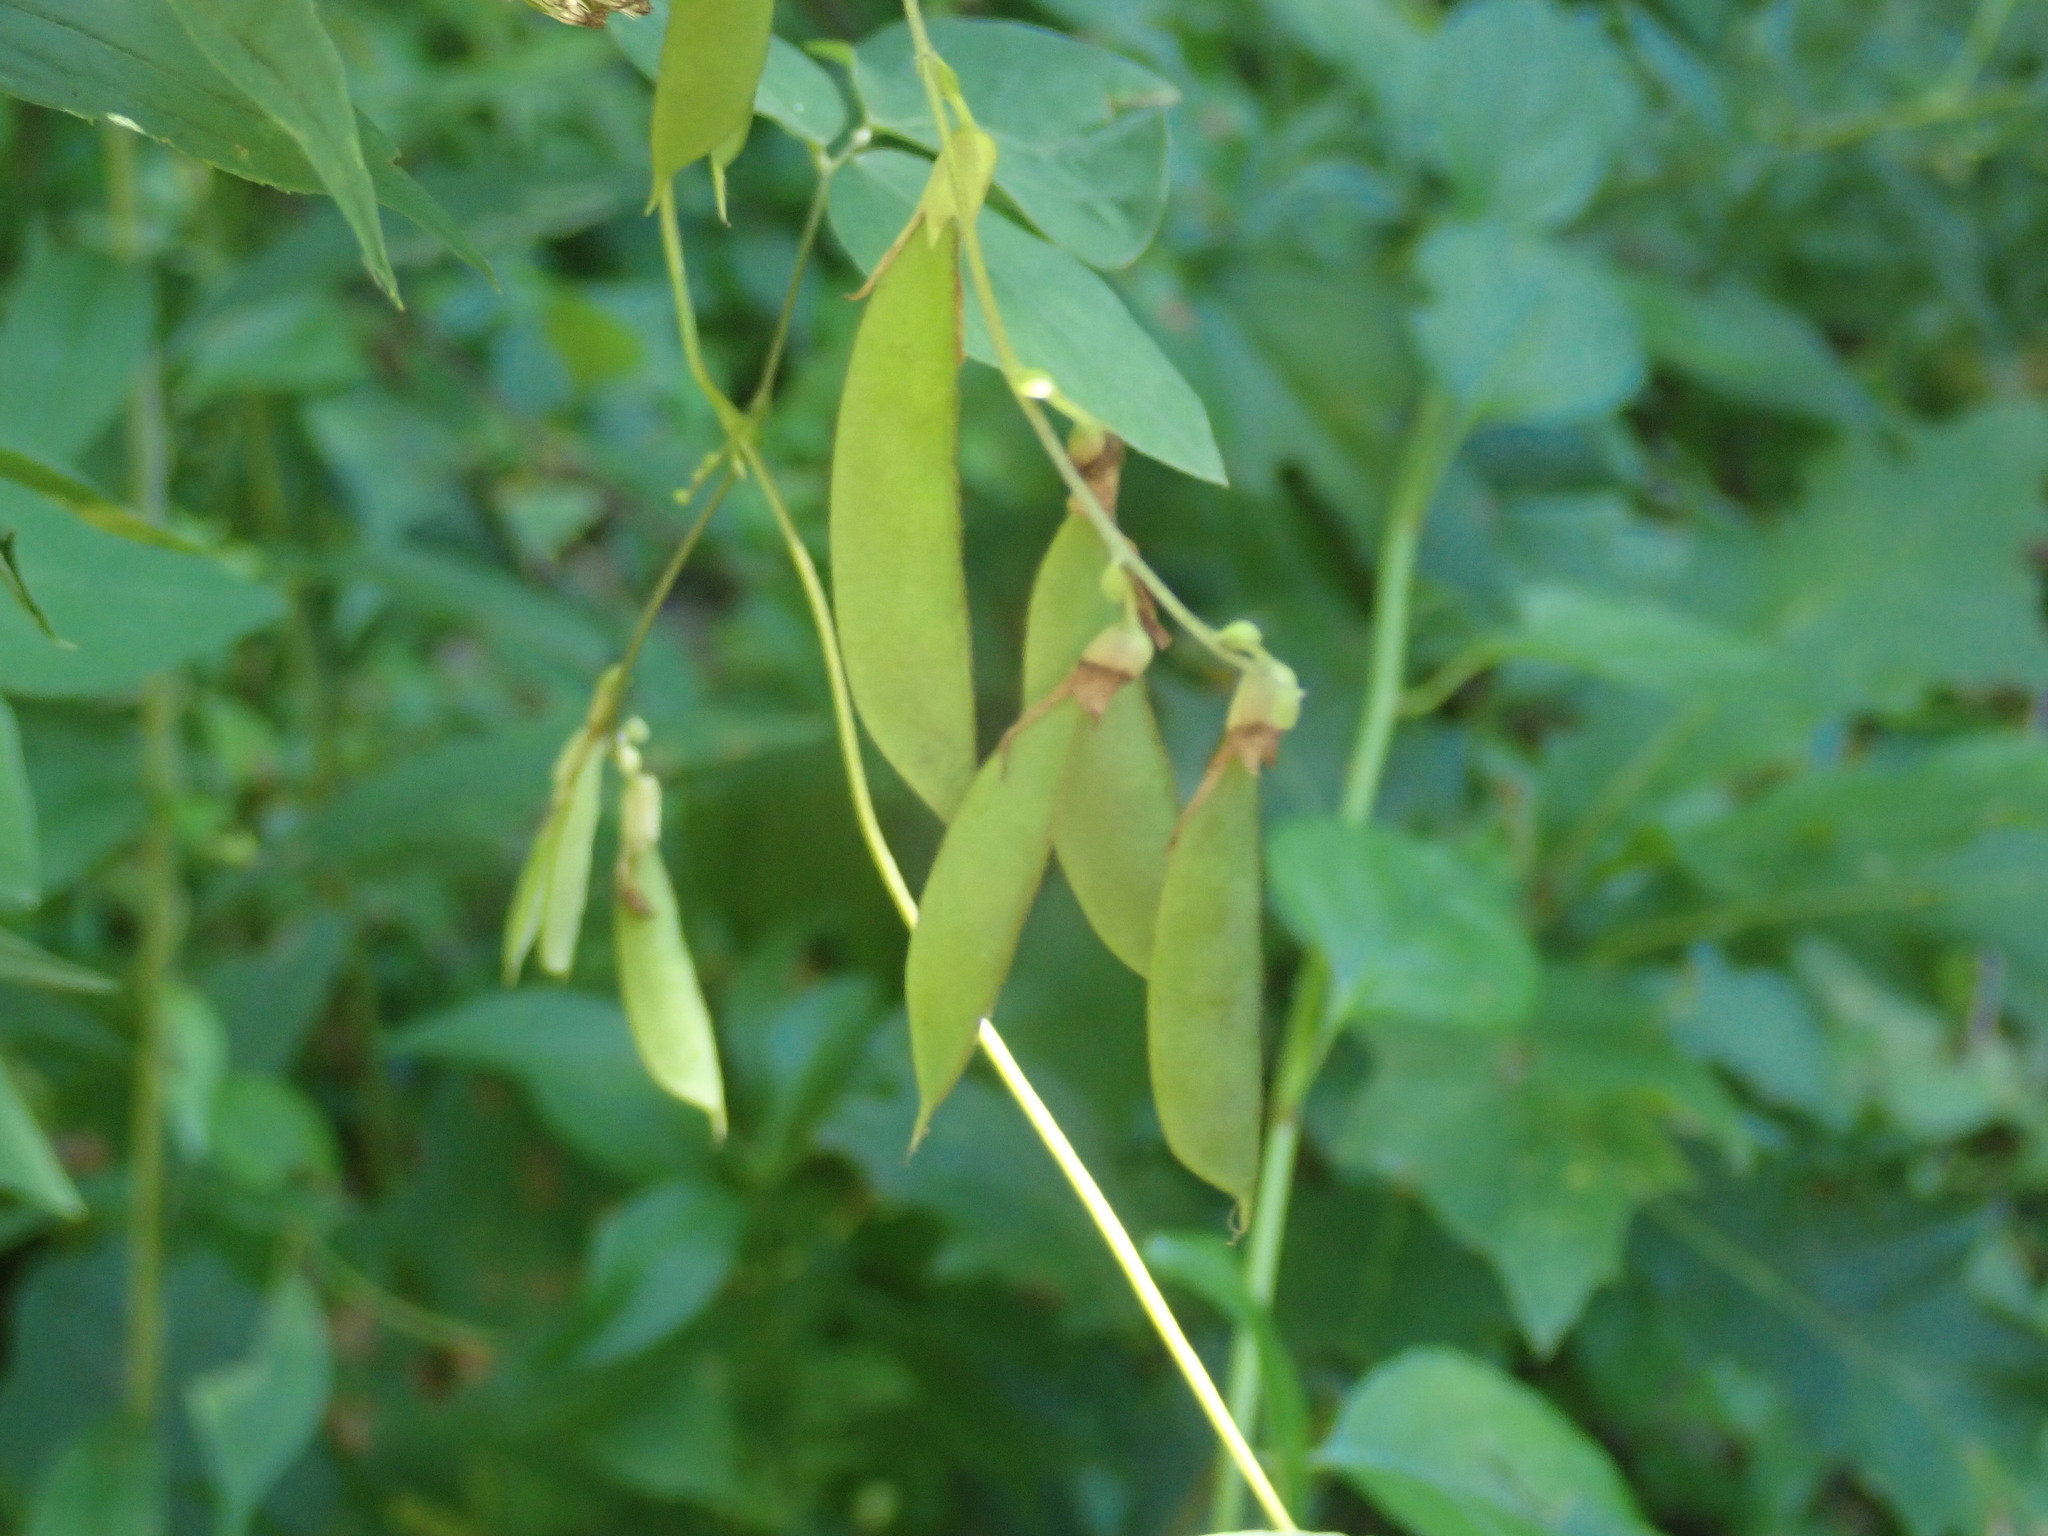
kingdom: Plantae
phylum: Tracheophyta
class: Magnoliopsida
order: Fabales
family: Fabaceae
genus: Amphicarpaea
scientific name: Amphicarpaea bracteata
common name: American hog peanut
